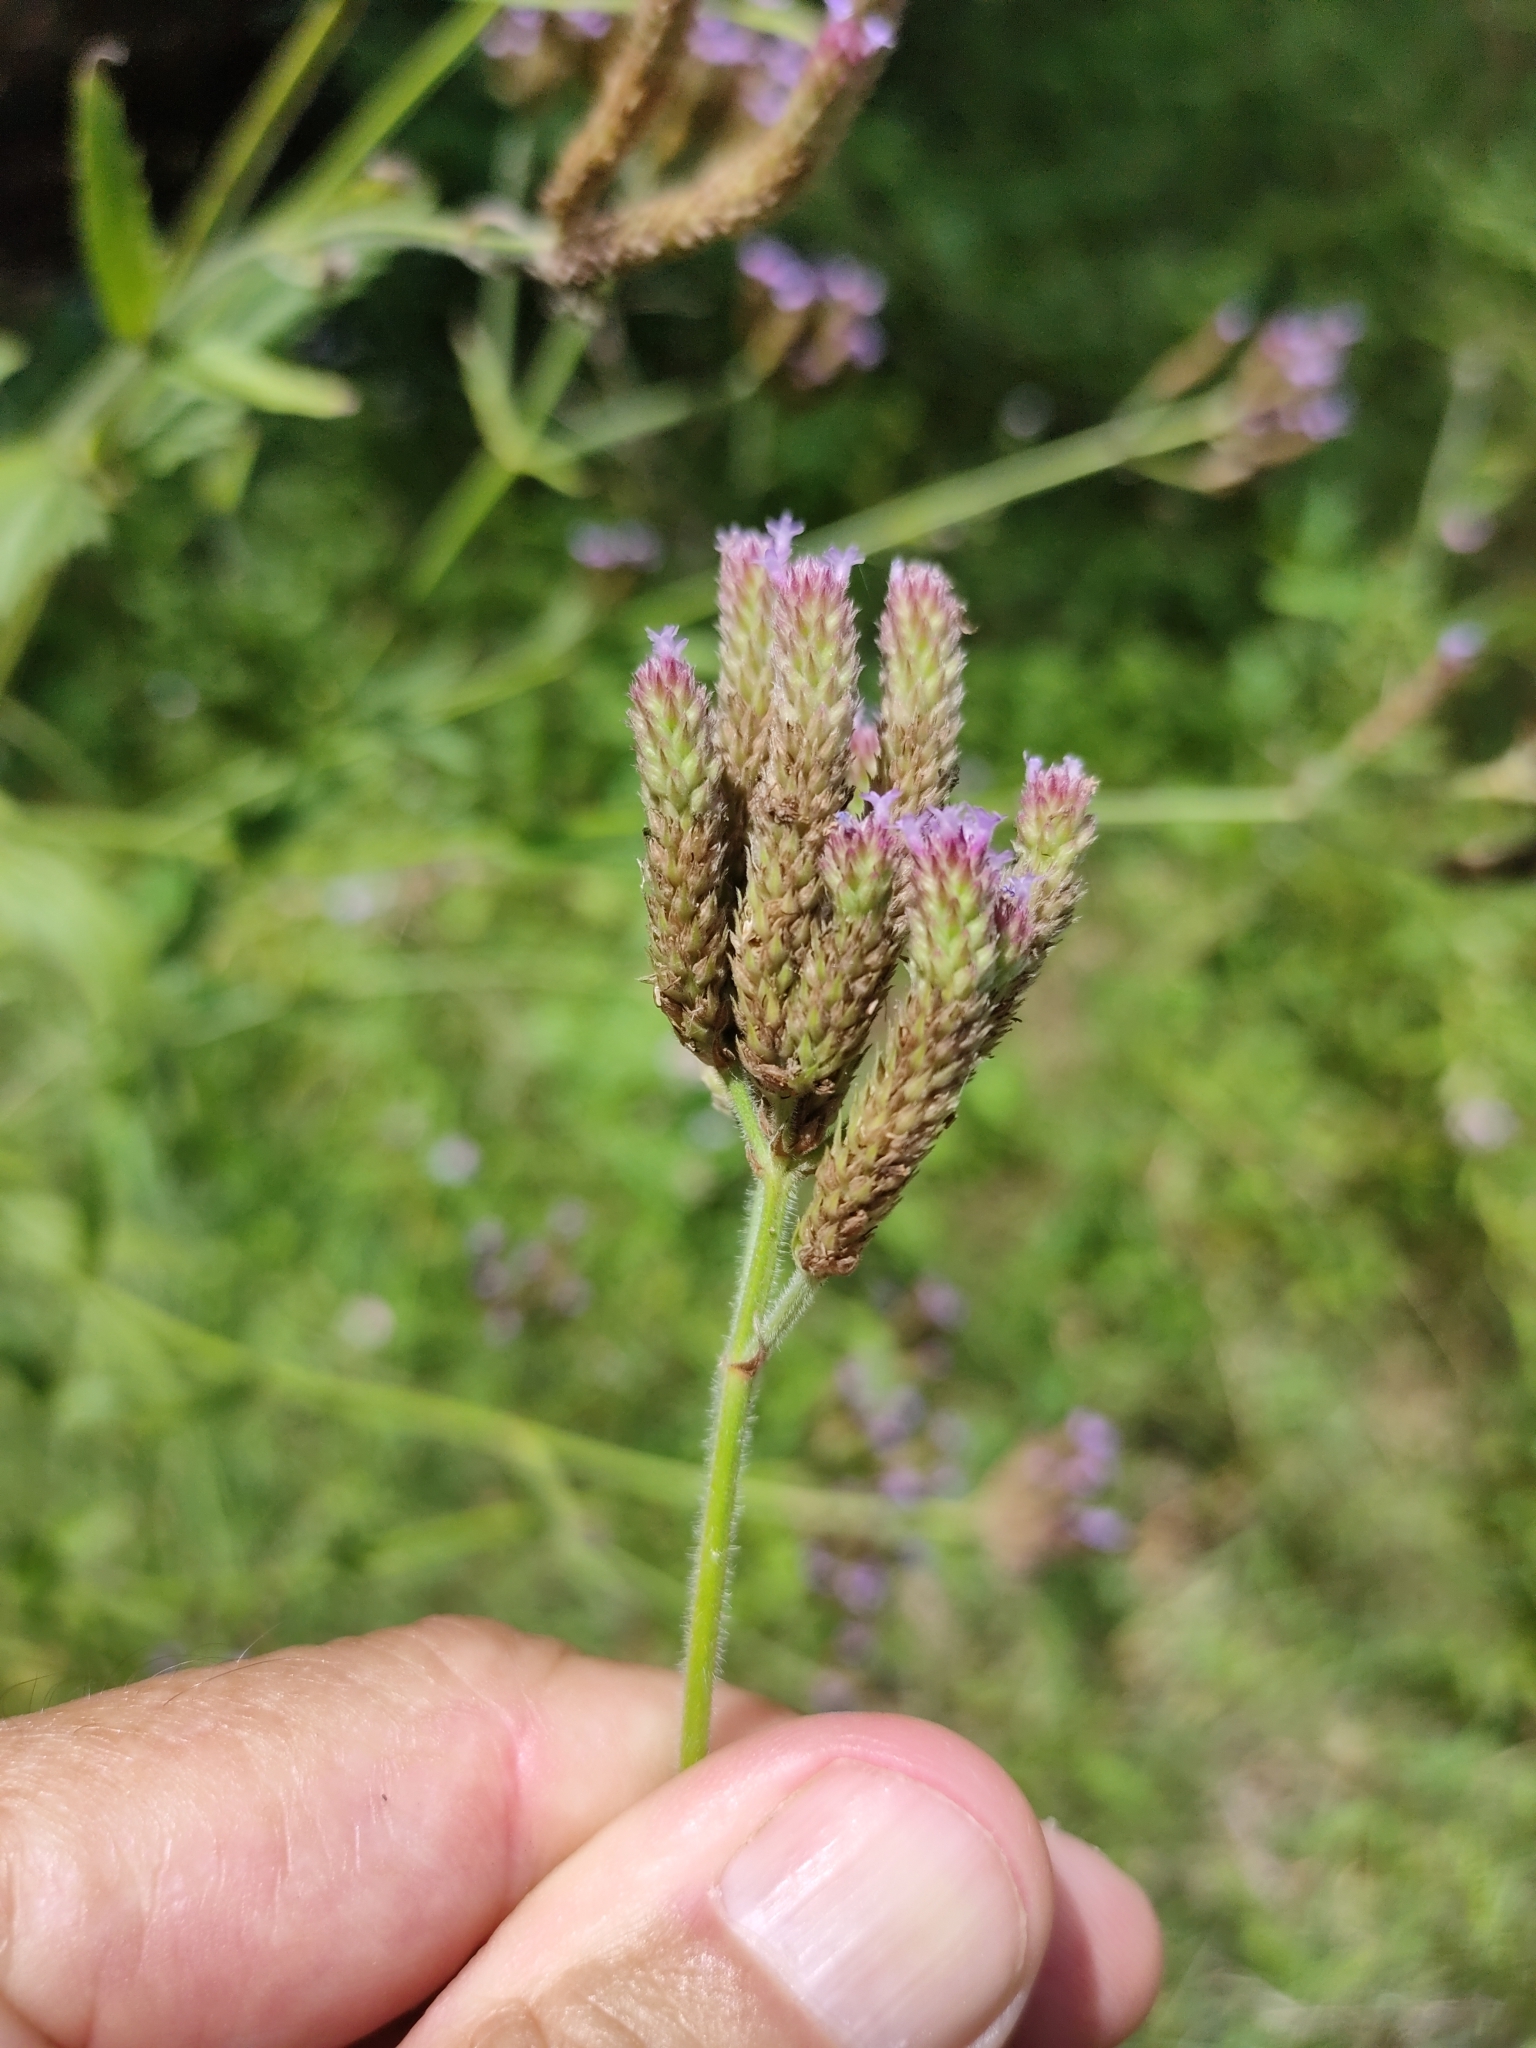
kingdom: Plantae
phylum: Tracheophyta
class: Magnoliopsida
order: Lamiales
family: Verbenaceae
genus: Verbena
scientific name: Verbena bonariensis
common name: Purpletop vervain
